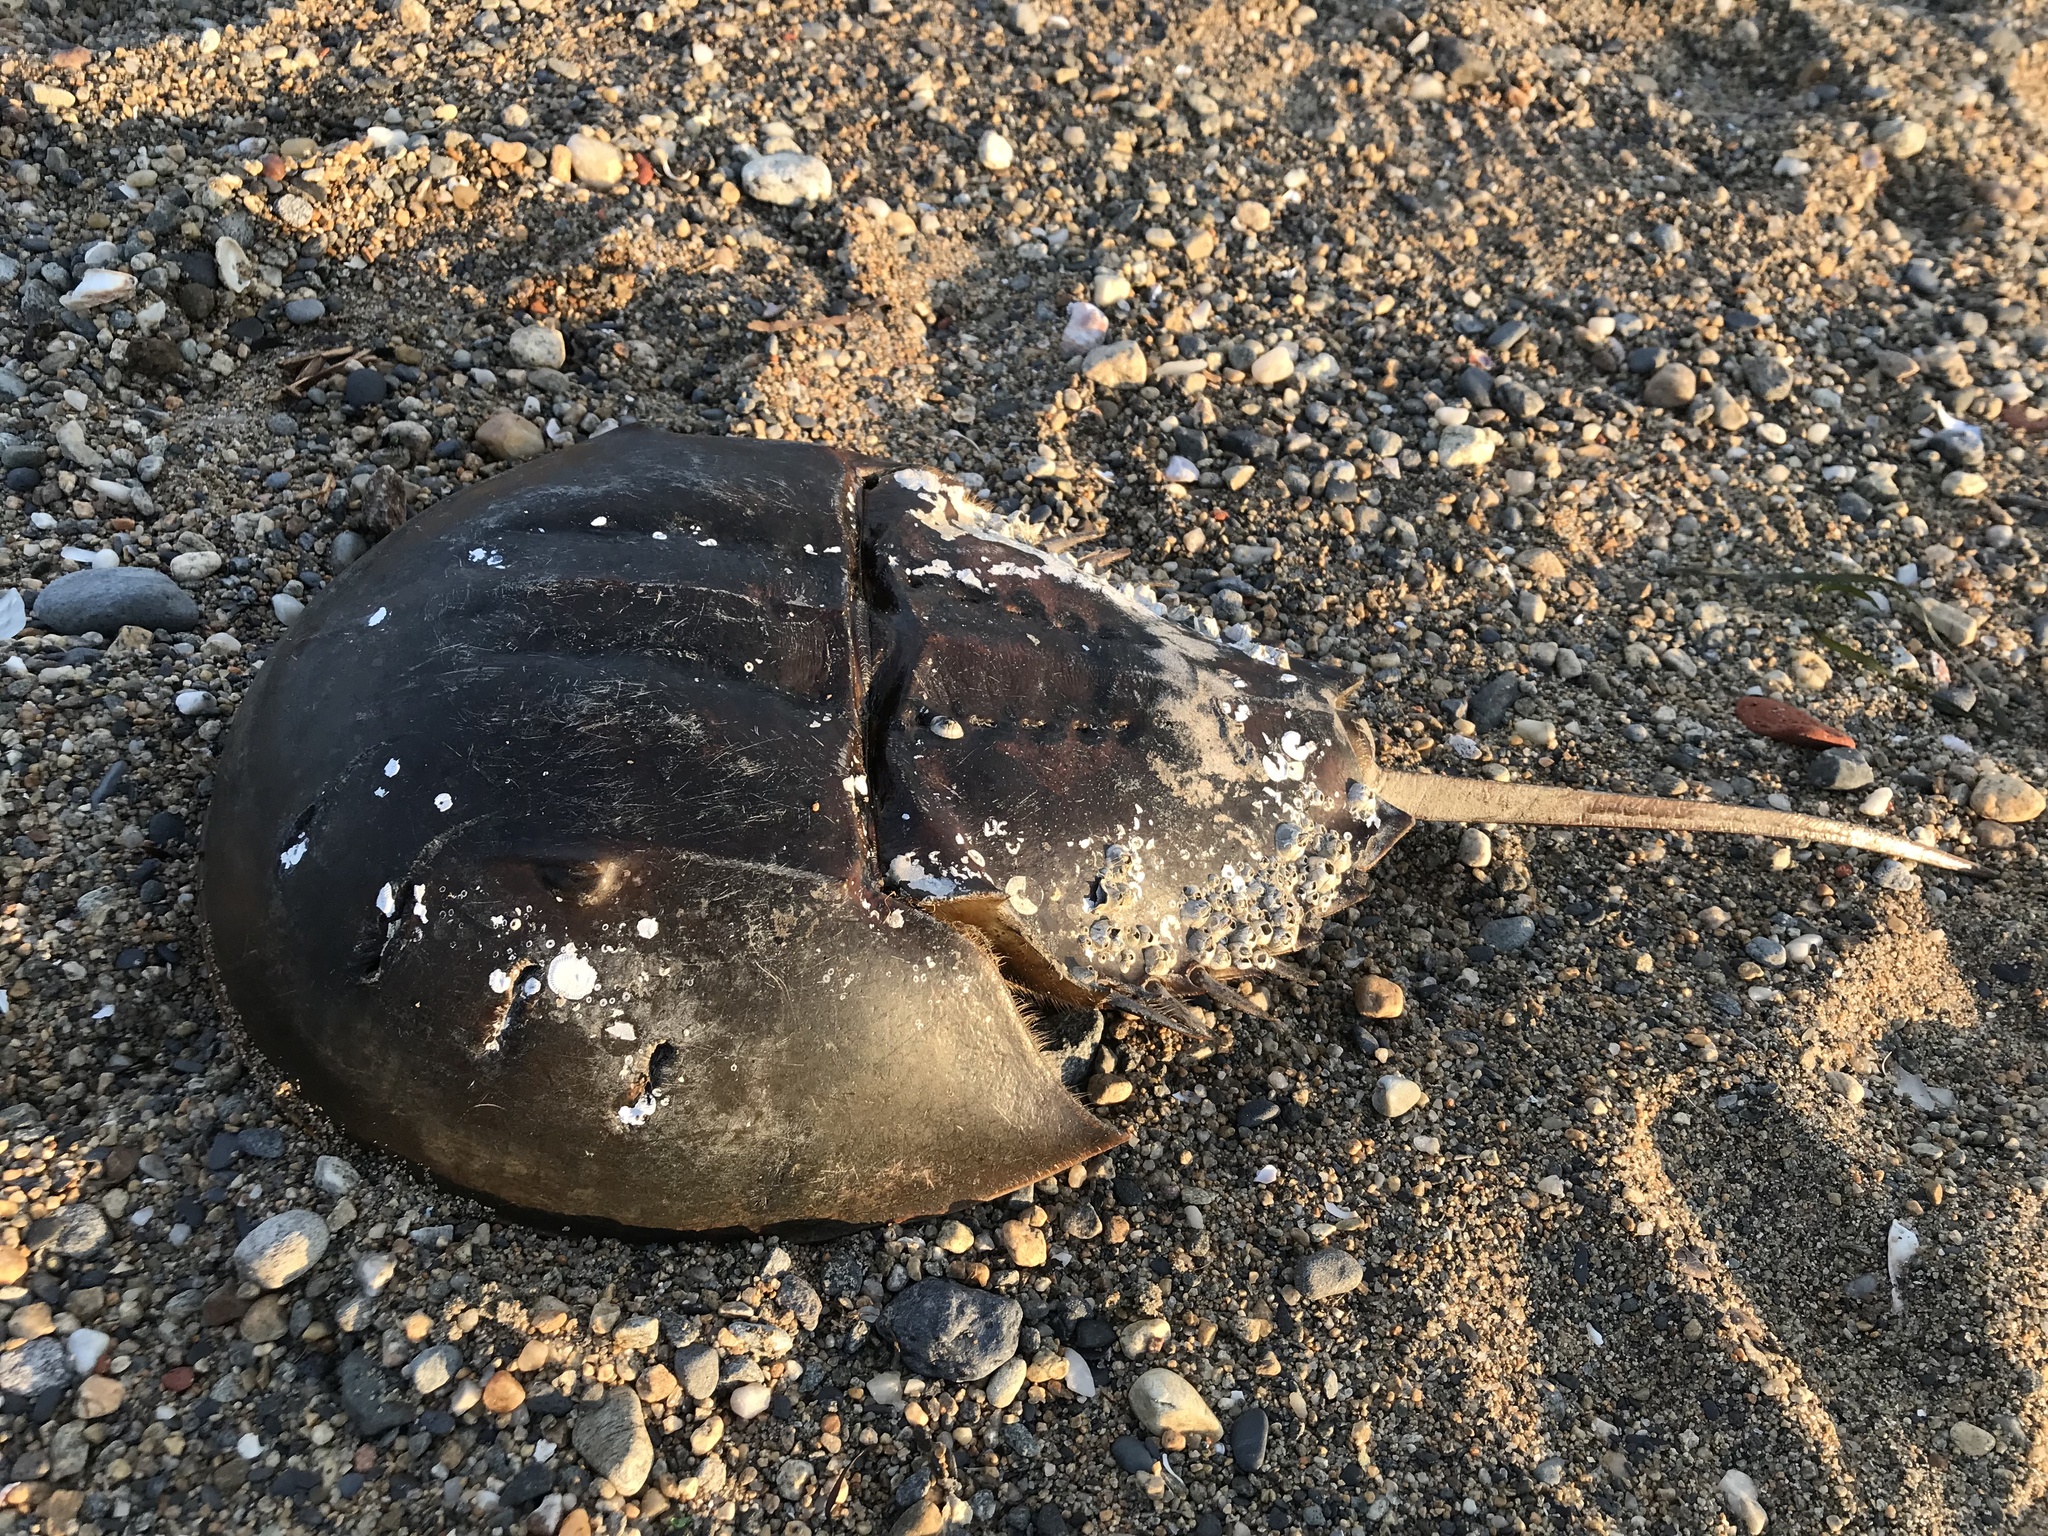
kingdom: Animalia
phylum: Arthropoda
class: Merostomata
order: Xiphosurida
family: Limulidae
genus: Limulus
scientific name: Limulus polyphemus
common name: Horseshoe crab
